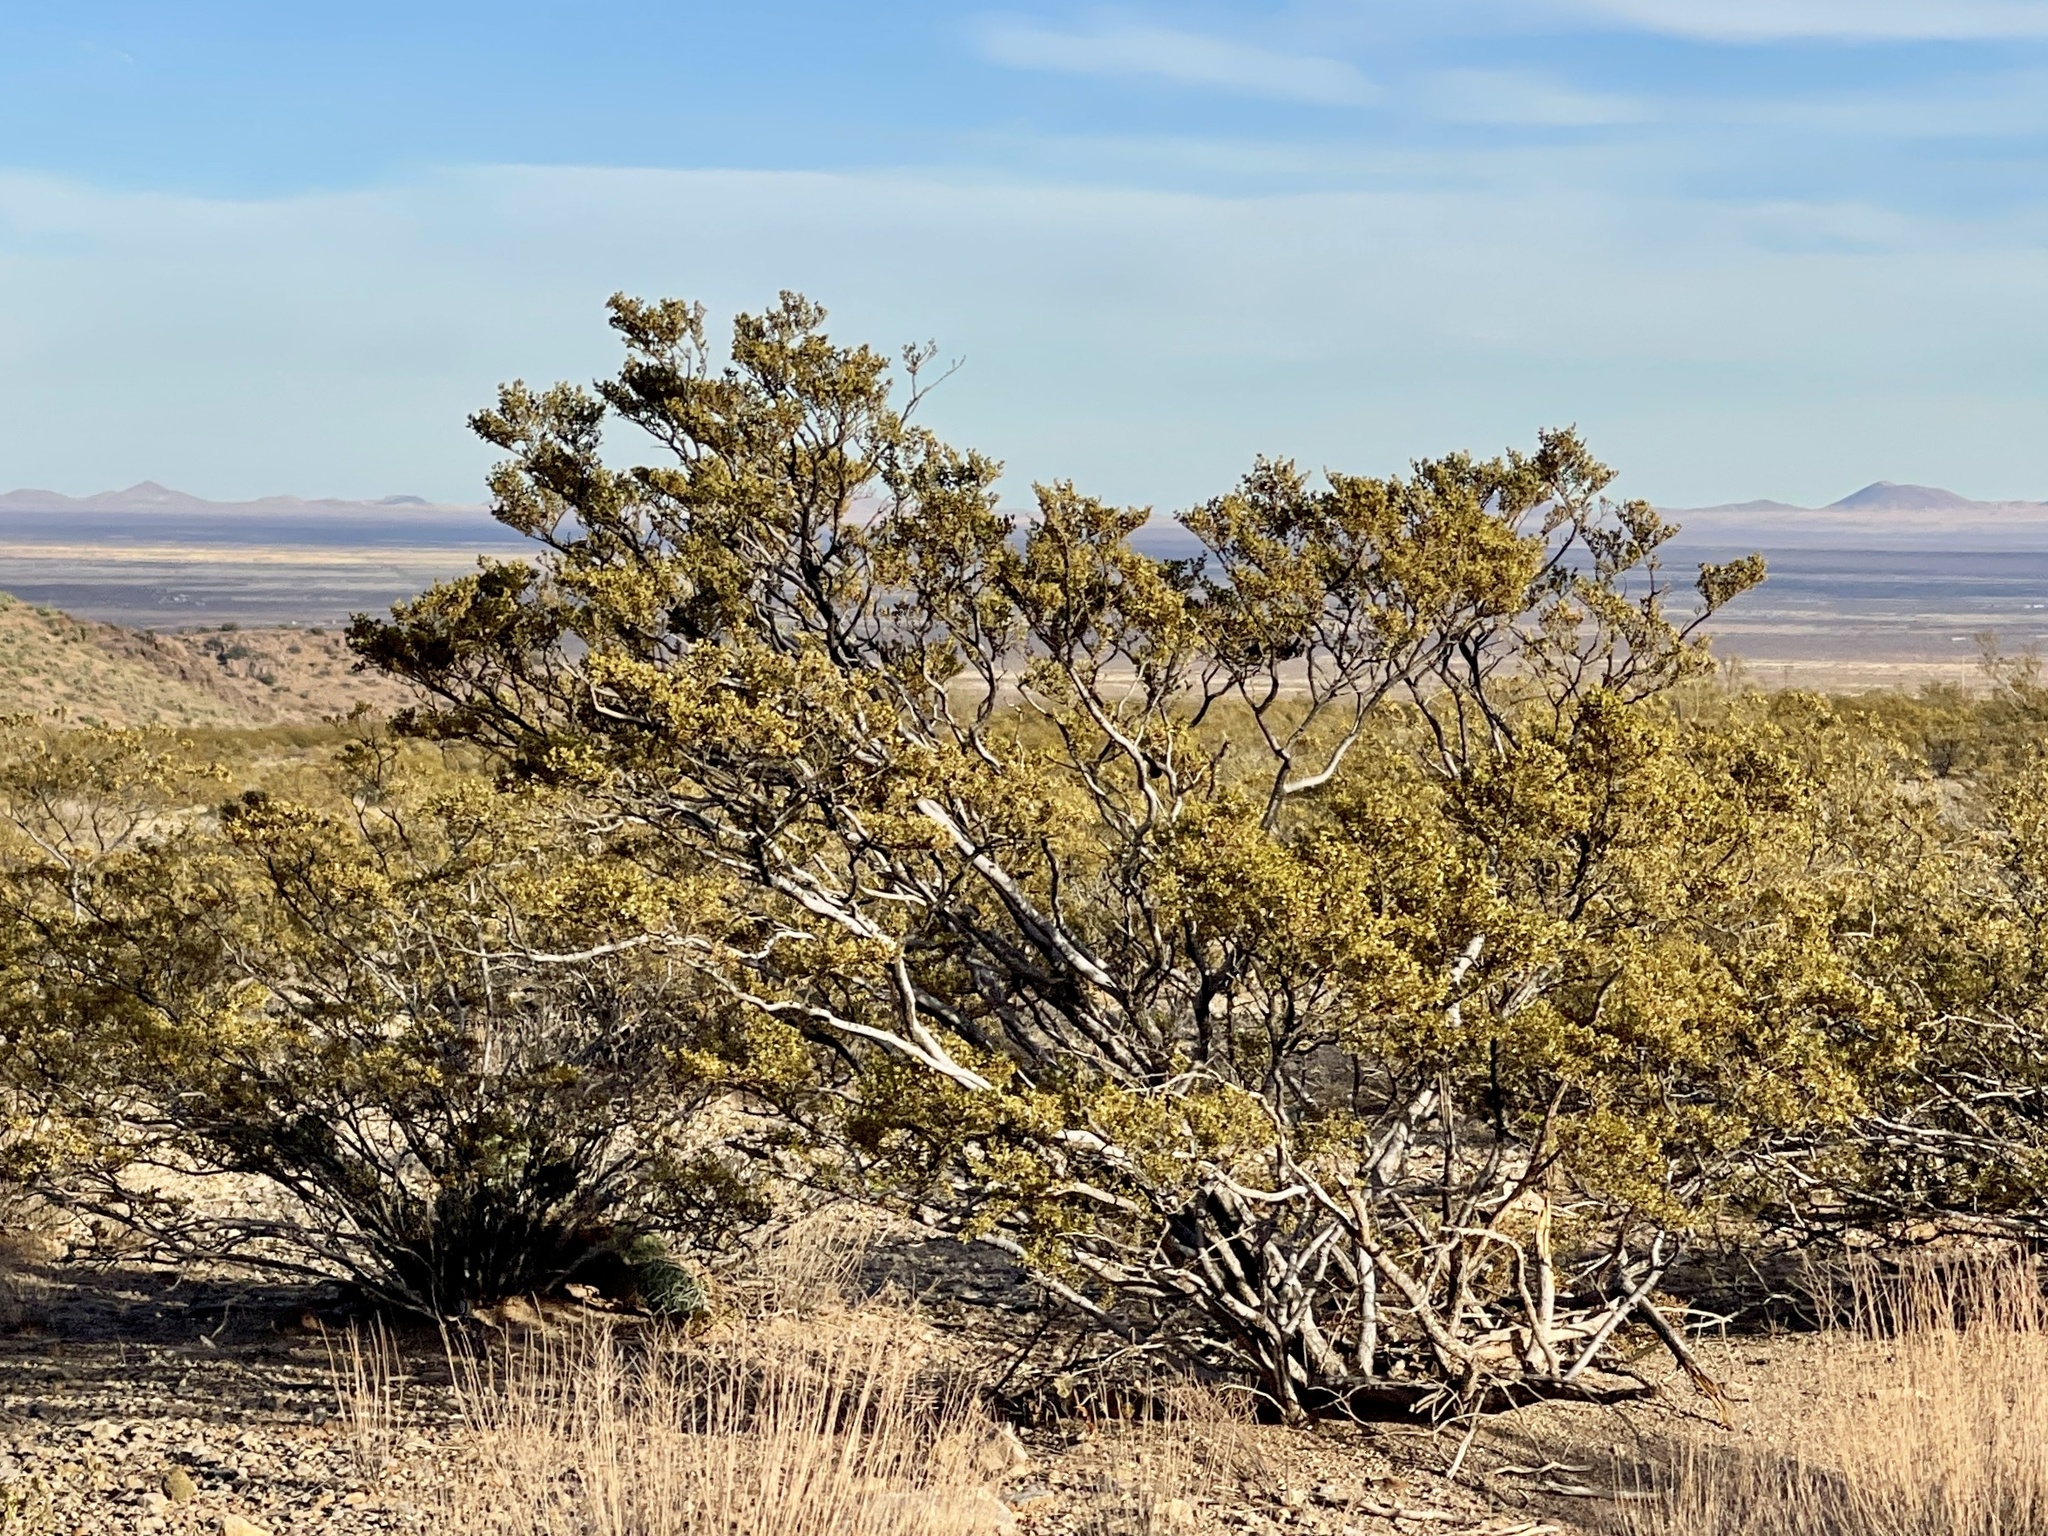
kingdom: Plantae
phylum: Tracheophyta
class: Magnoliopsida
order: Zygophyllales
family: Zygophyllaceae
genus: Larrea
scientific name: Larrea tridentata
